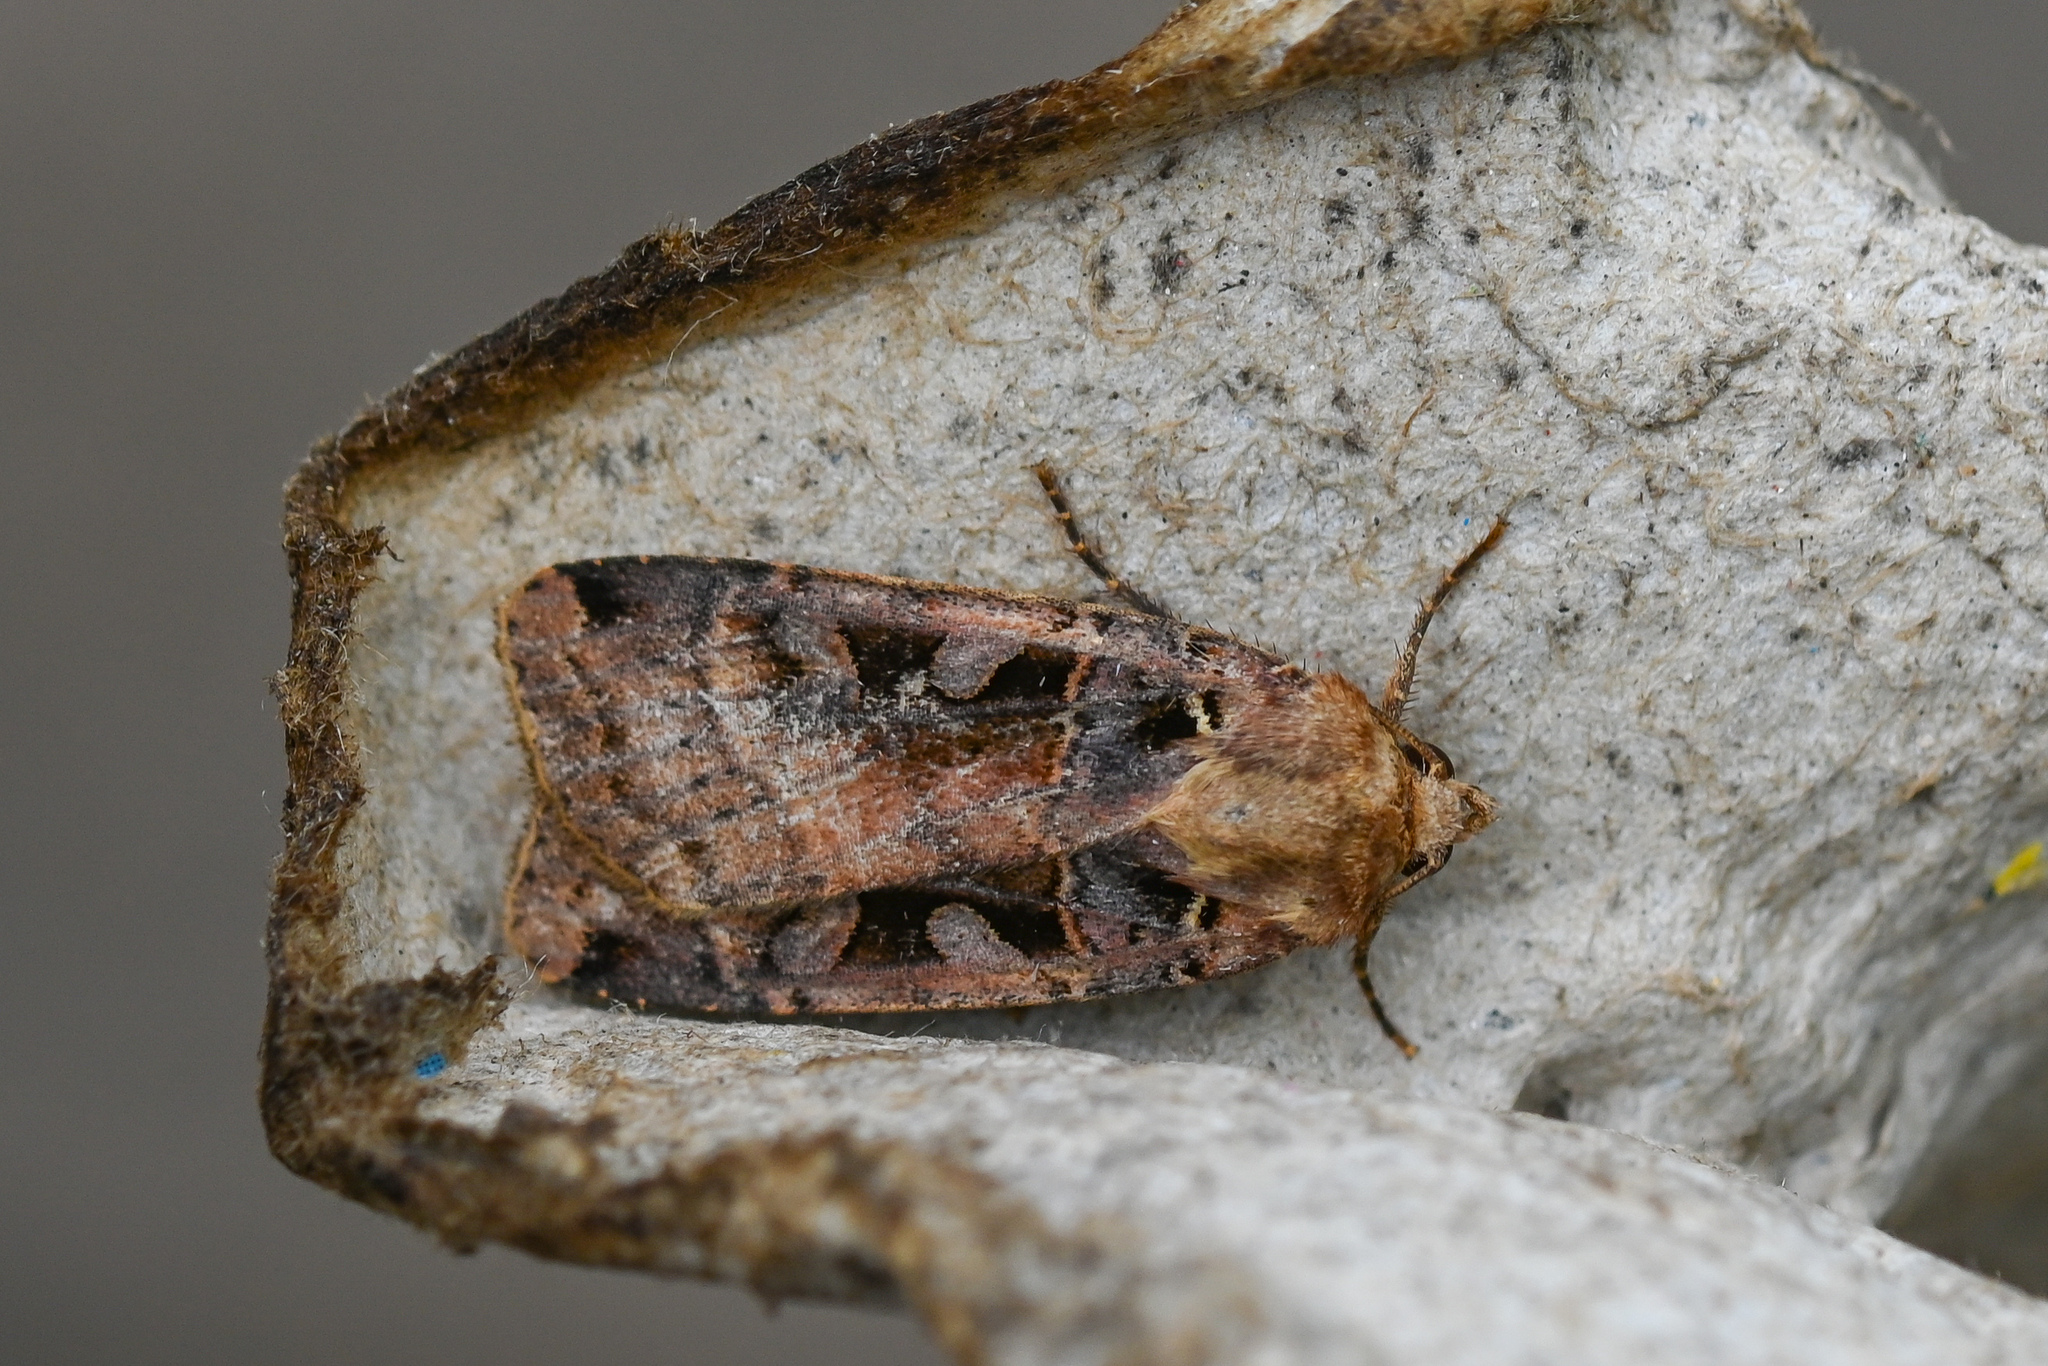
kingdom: Animalia
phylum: Arthropoda
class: Insecta
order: Lepidoptera
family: Noctuidae
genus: Xestia
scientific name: Xestia ditrapezium
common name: Triple-spotted clay
